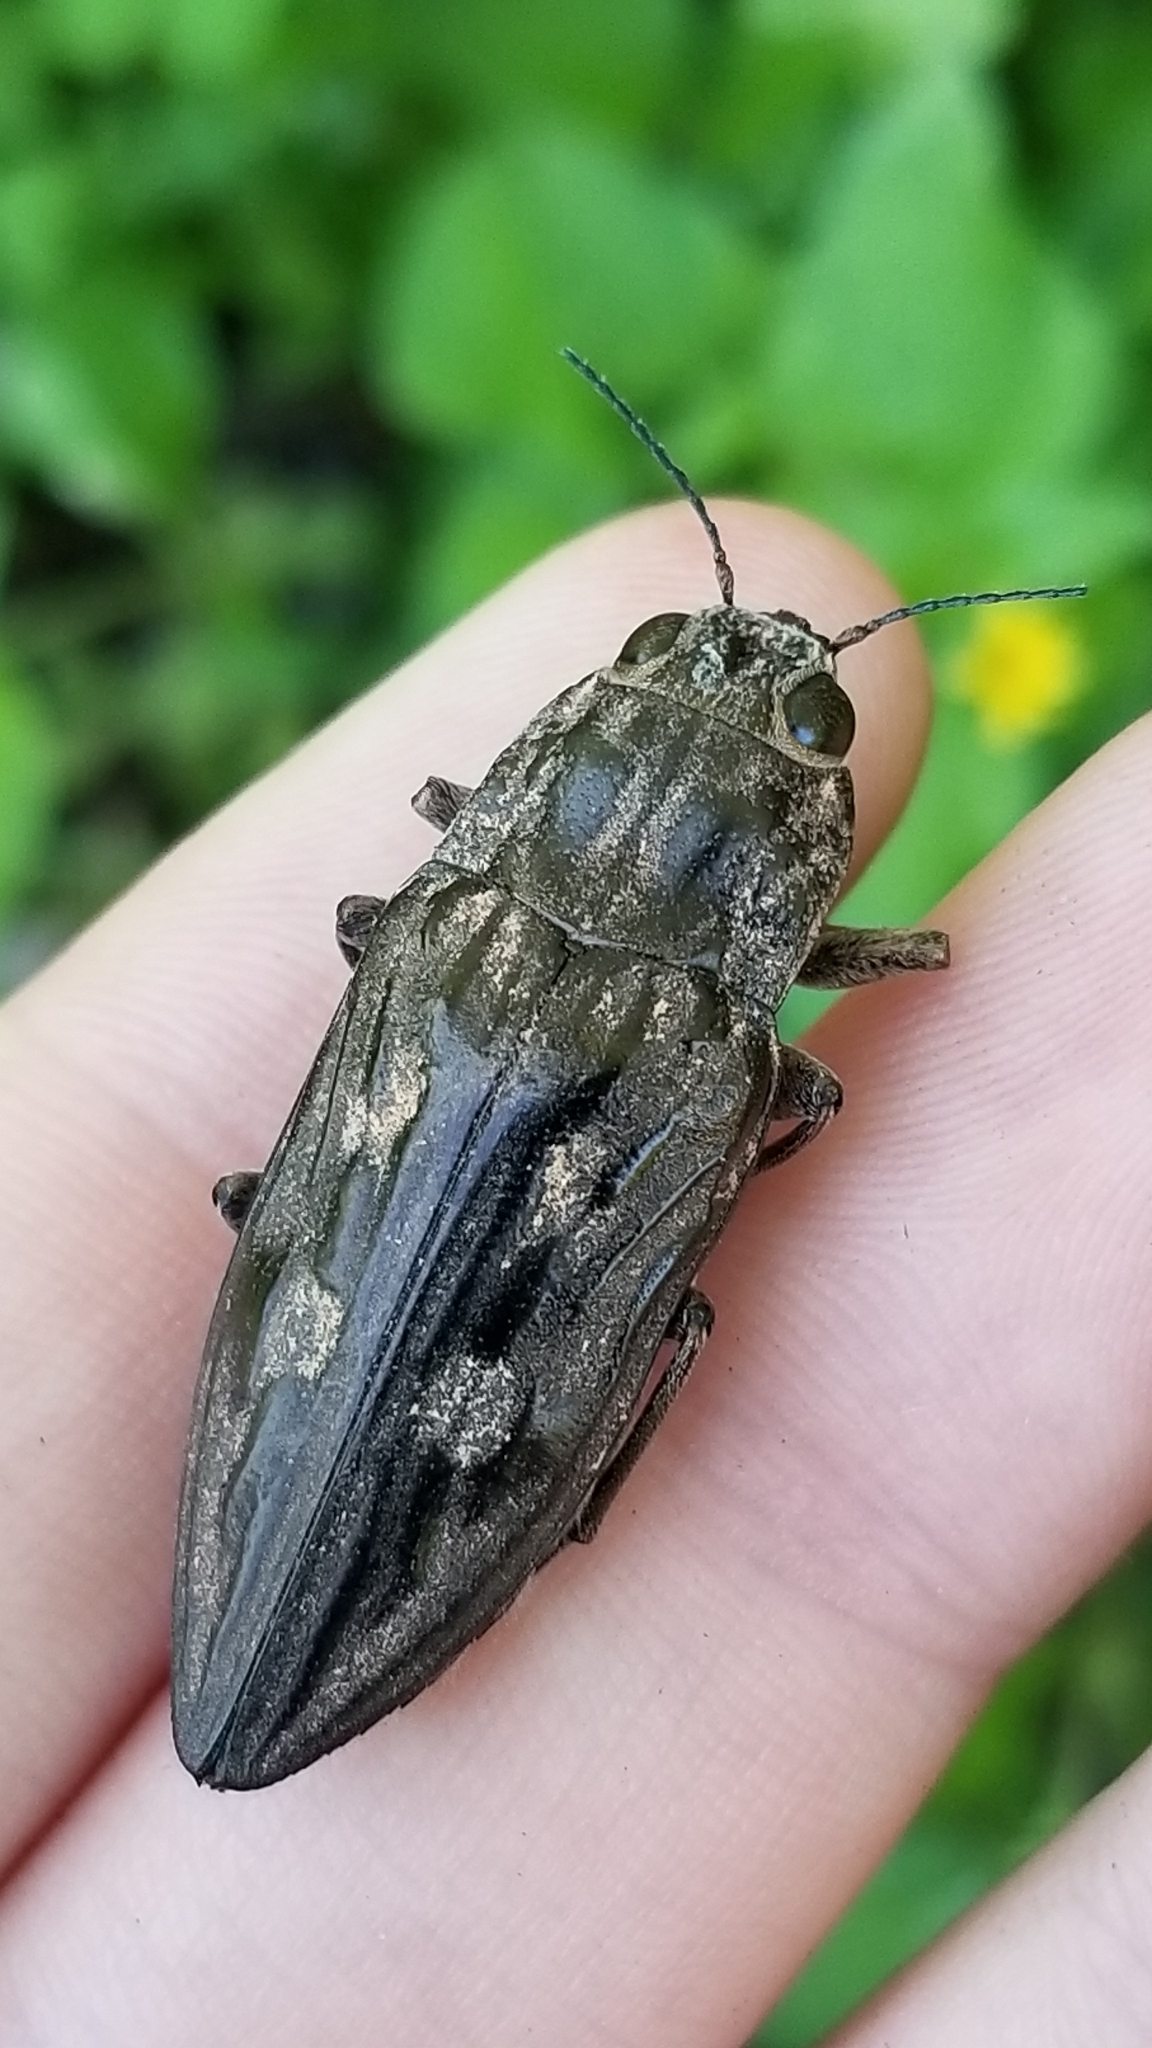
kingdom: Animalia
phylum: Arthropoda
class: Insecta
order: Coleoptera
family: Buprestidae
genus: Chalcophora
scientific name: Chalcophora virginiensis
